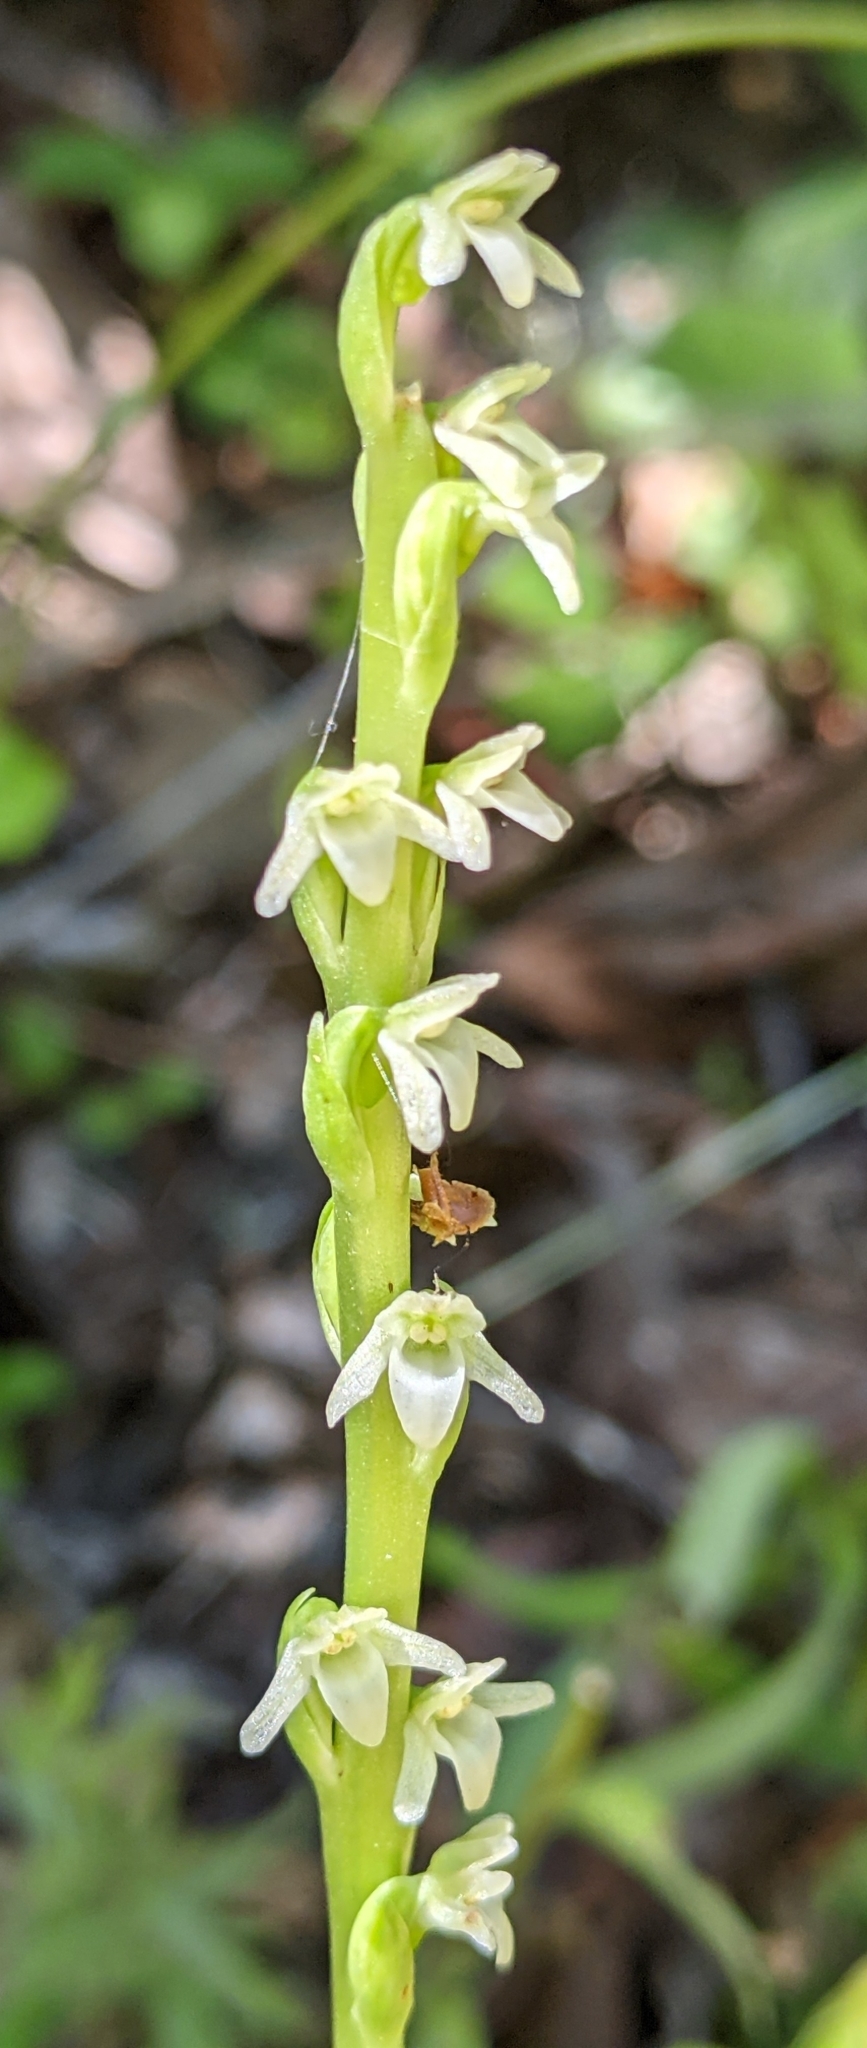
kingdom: Plantae
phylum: Tracheophyta
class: Liliopsida
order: Asparagales
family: Orchidaceae
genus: Platanthera
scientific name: Platanthera ephemerantha
